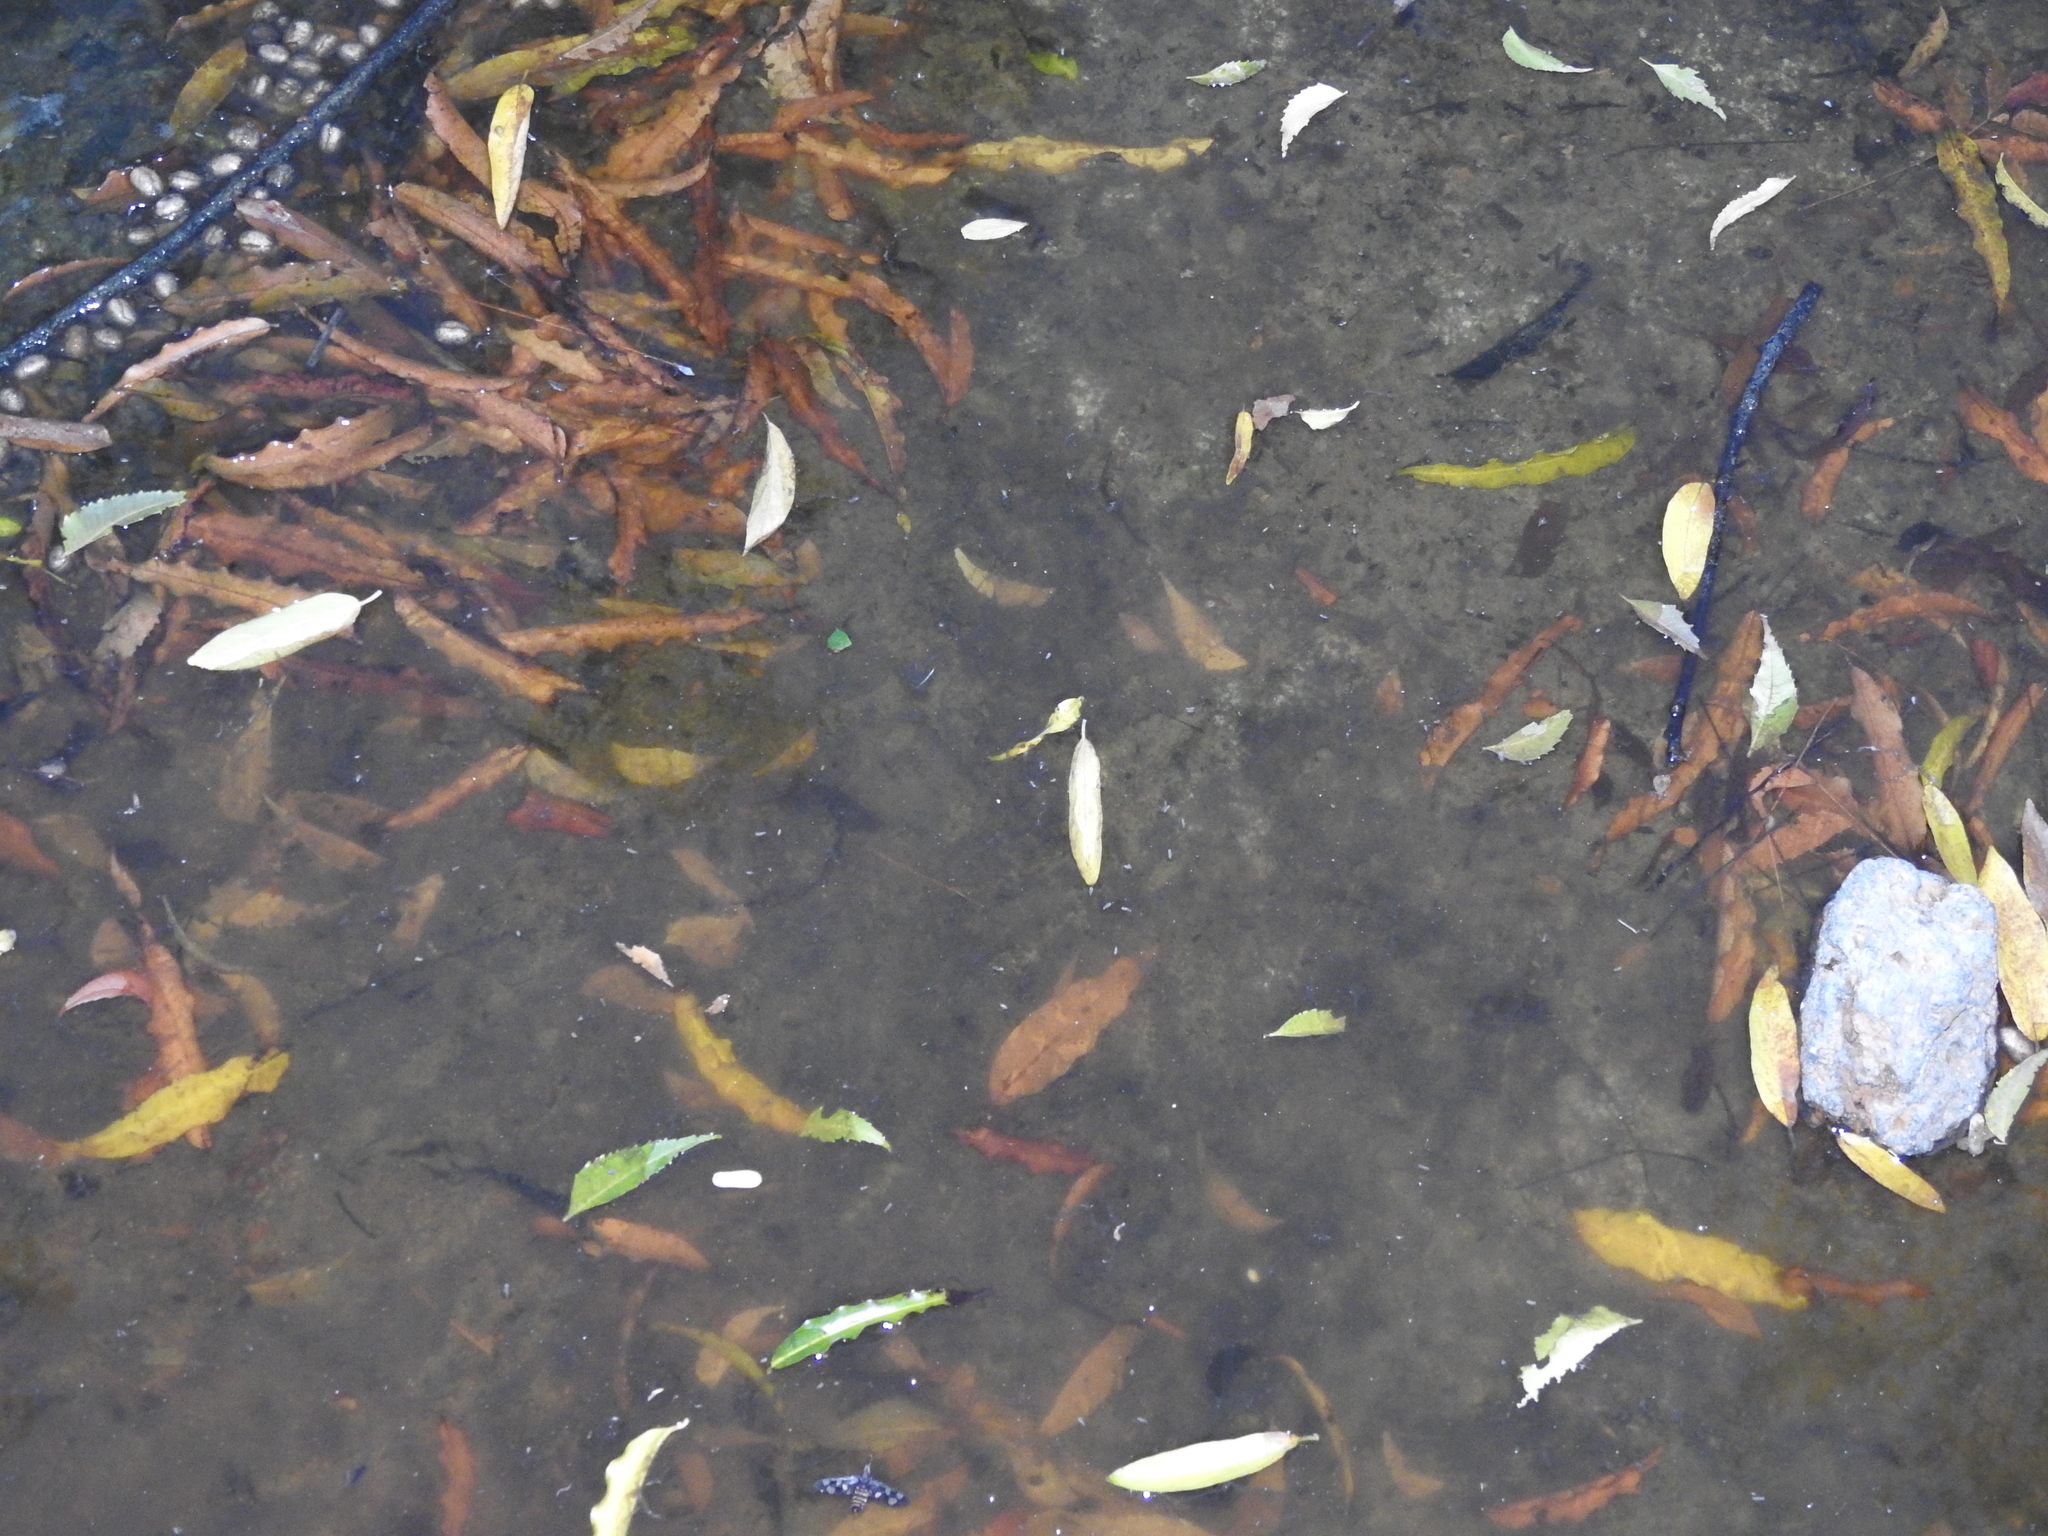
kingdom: Animalia
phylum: Arthropoda
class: Insecta
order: Odonata
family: Libellulidae
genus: Zyxomma
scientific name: Zyxomma petiolatum
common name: Dingy dusk-darter
